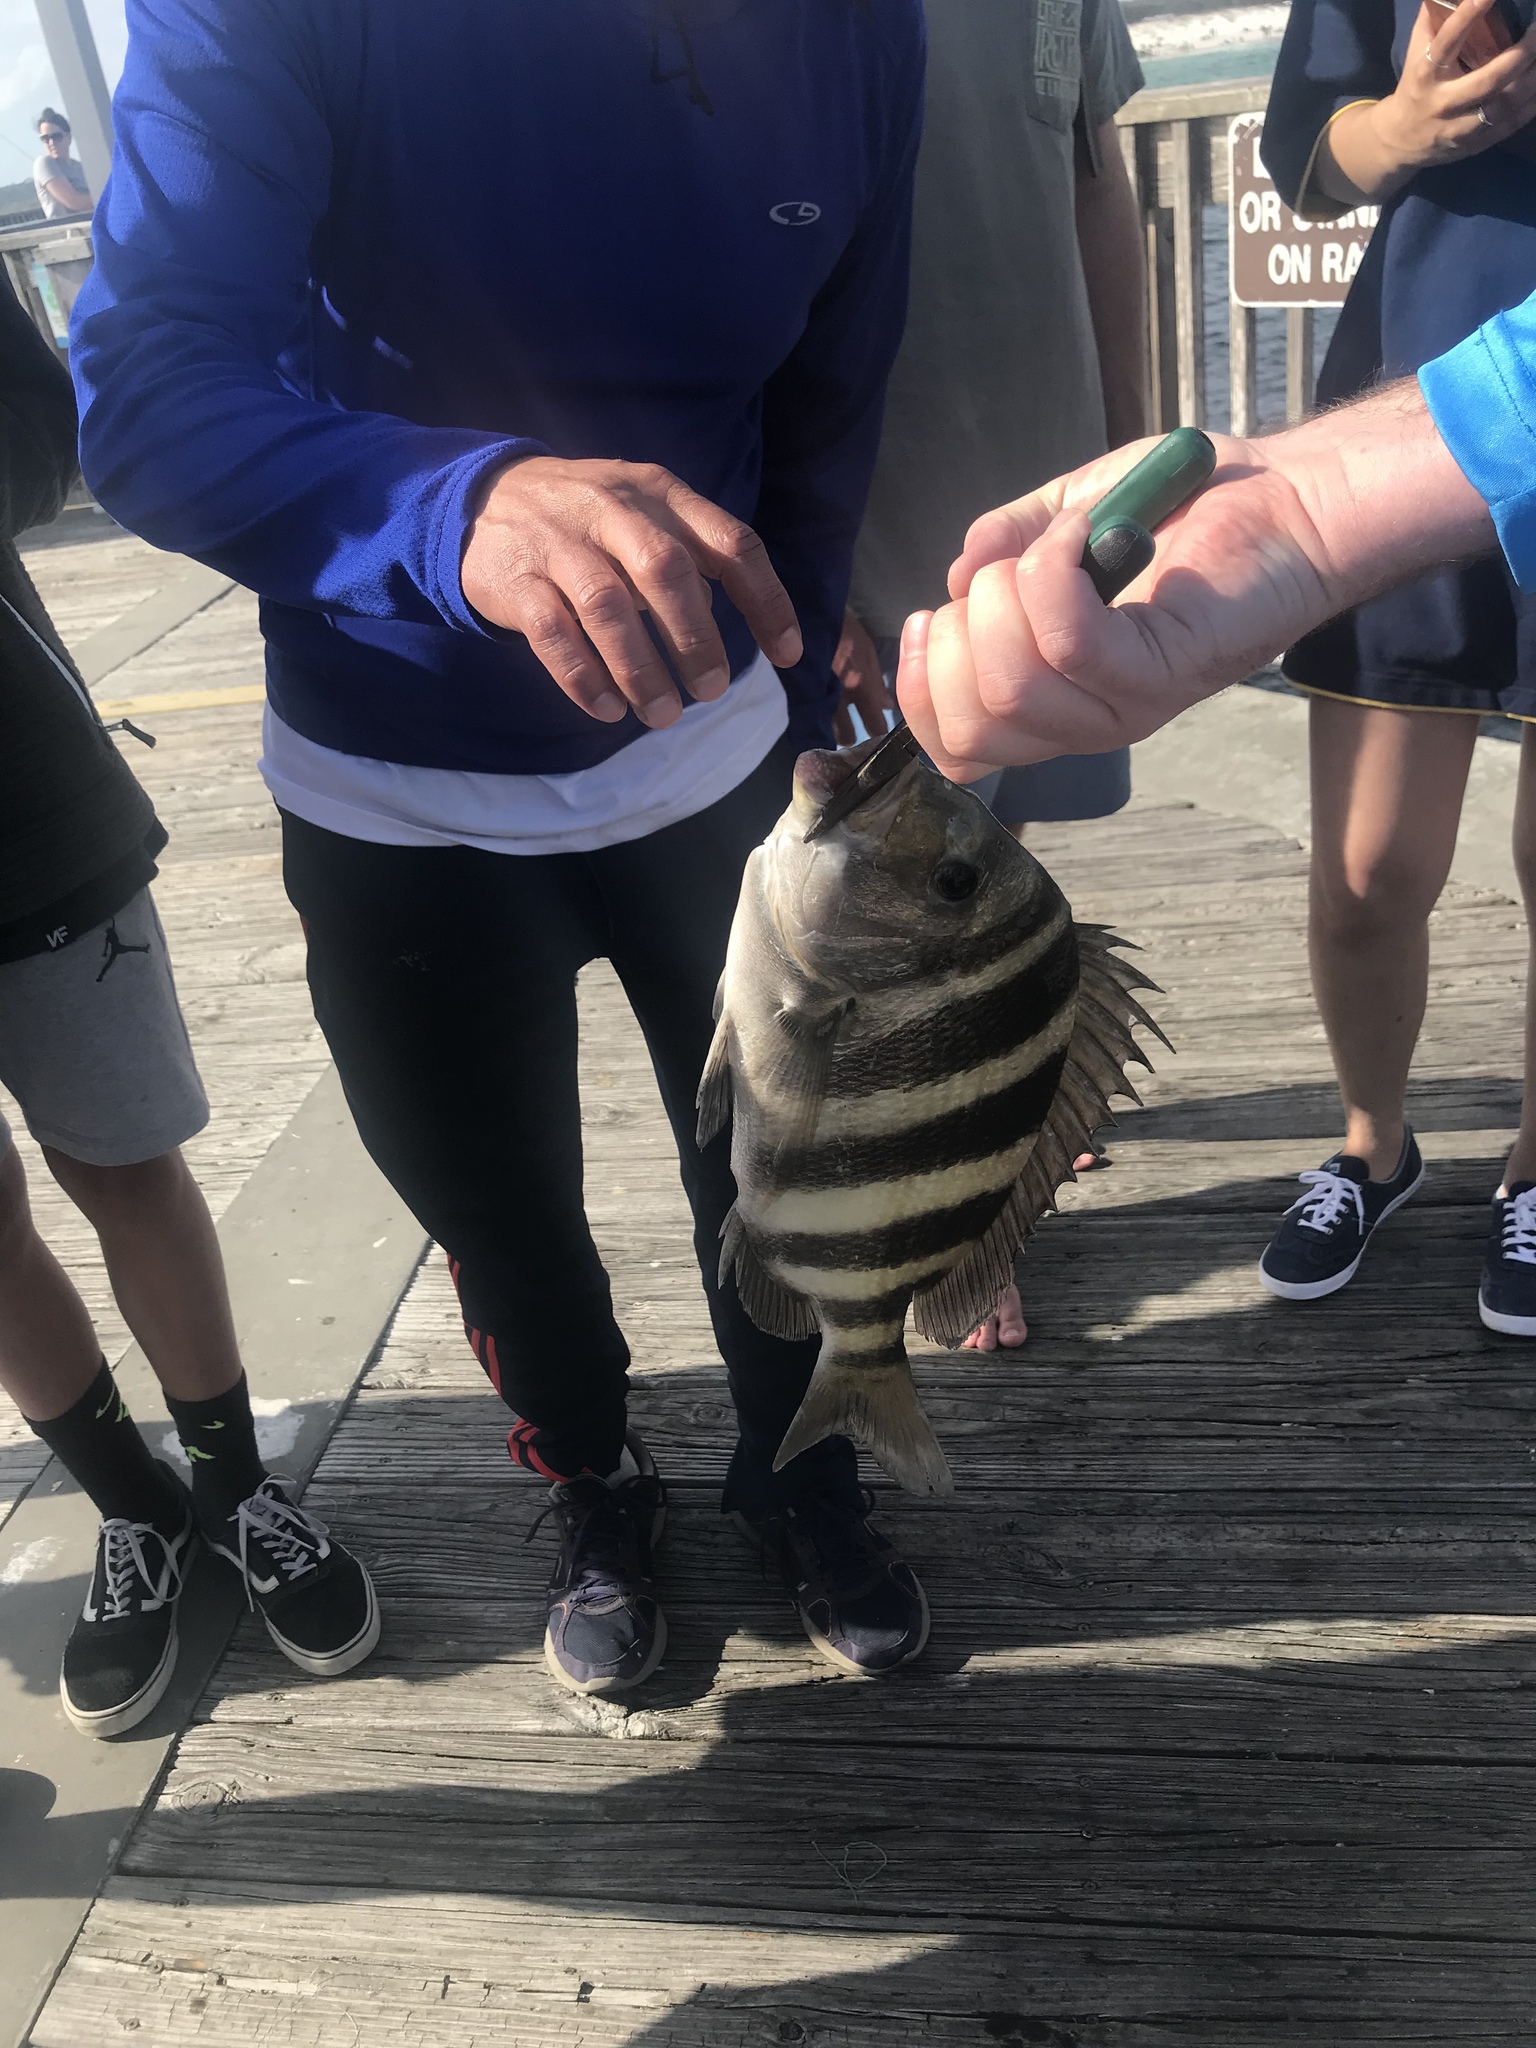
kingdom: Animalia
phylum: Chordata
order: Perciformes
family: Sparidae
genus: Archosargus
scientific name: Archosargus probatocephalus
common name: Sheepshead
